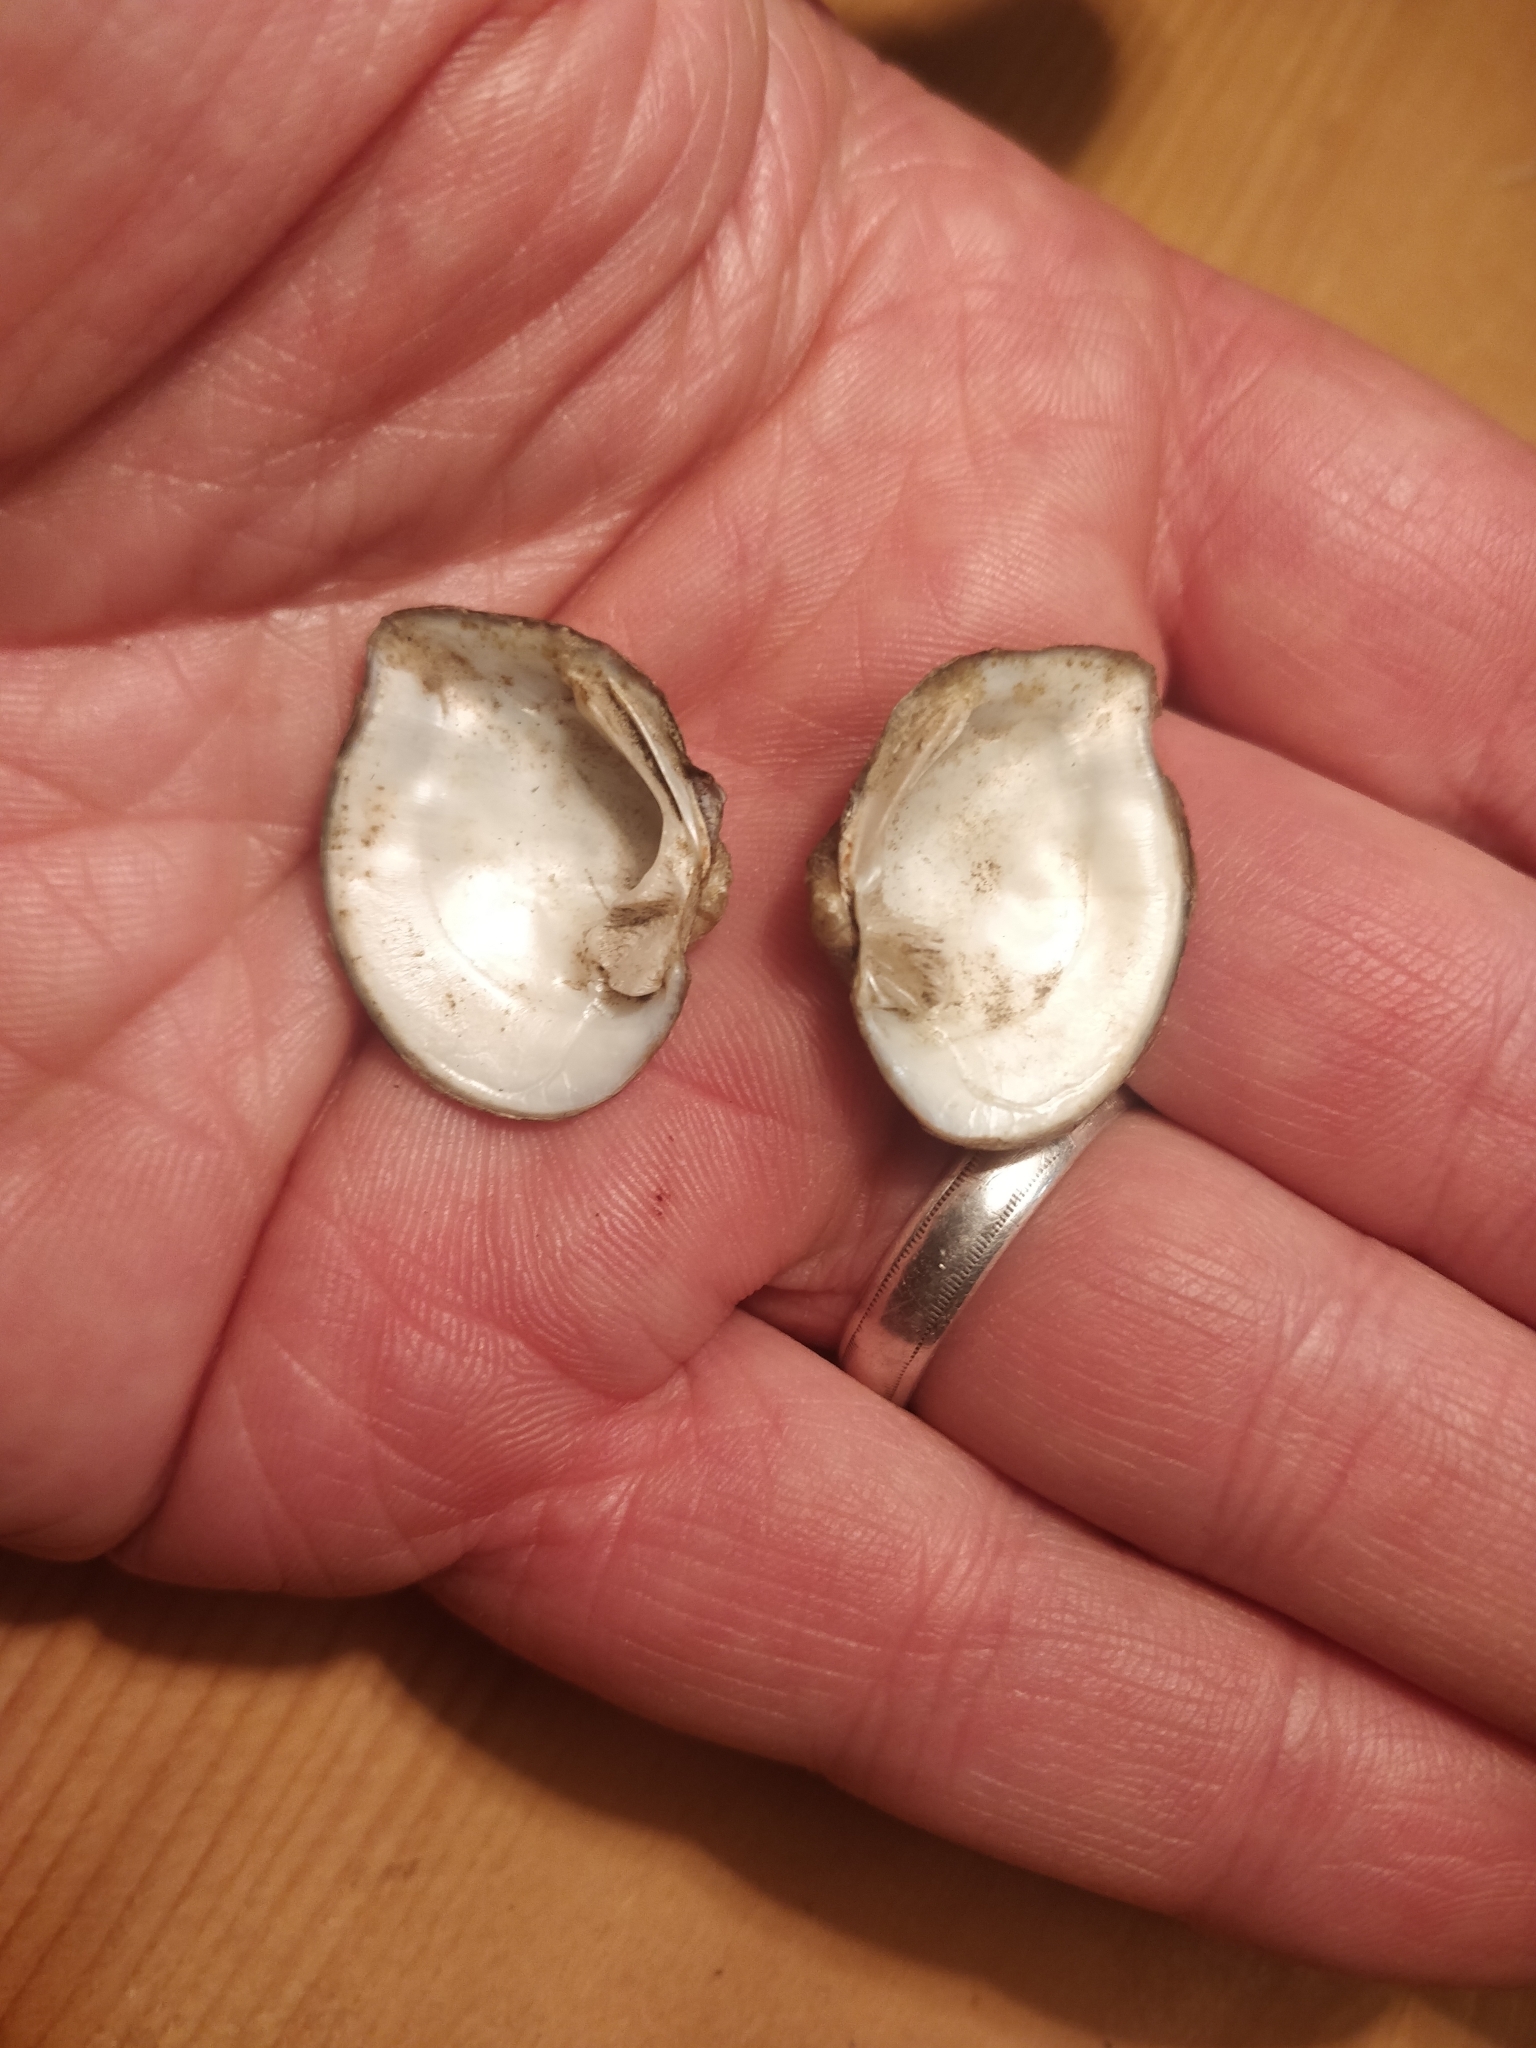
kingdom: Animalia
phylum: Mollusca
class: Bivalvia
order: Unionida
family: Unionidae
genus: Quadrula
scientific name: Quadrula quadrula
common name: Mapleleaf
